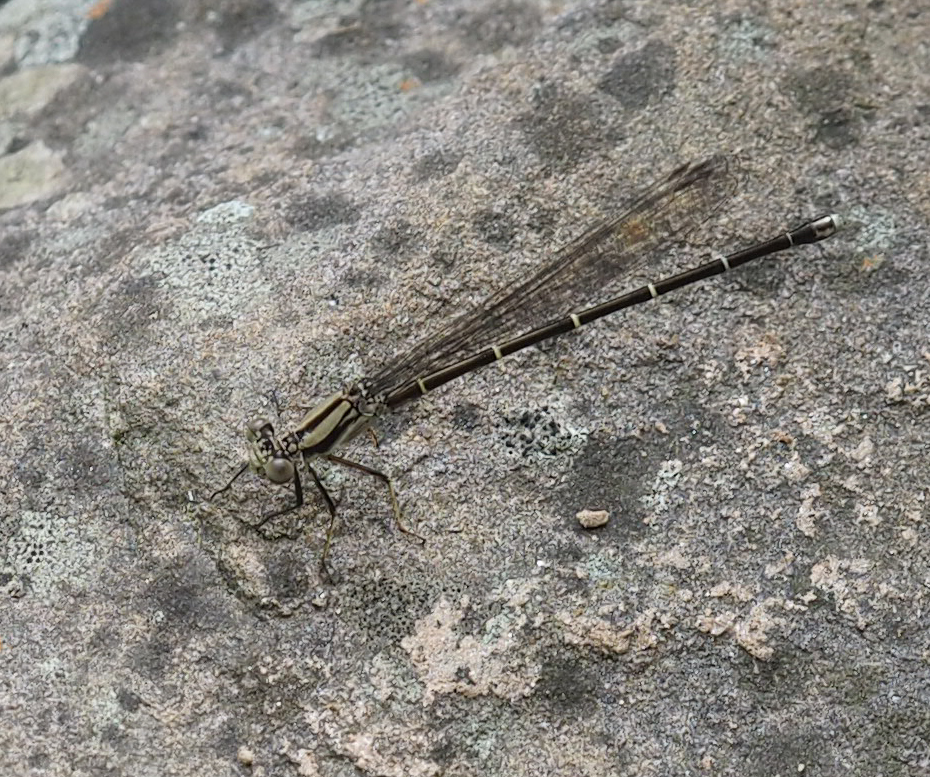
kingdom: Animalia
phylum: Arthropoda
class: Insecta
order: Odonata
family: Coenagrionidae
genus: Argia
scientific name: Argia tibialis
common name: Blue-tipped dancer
